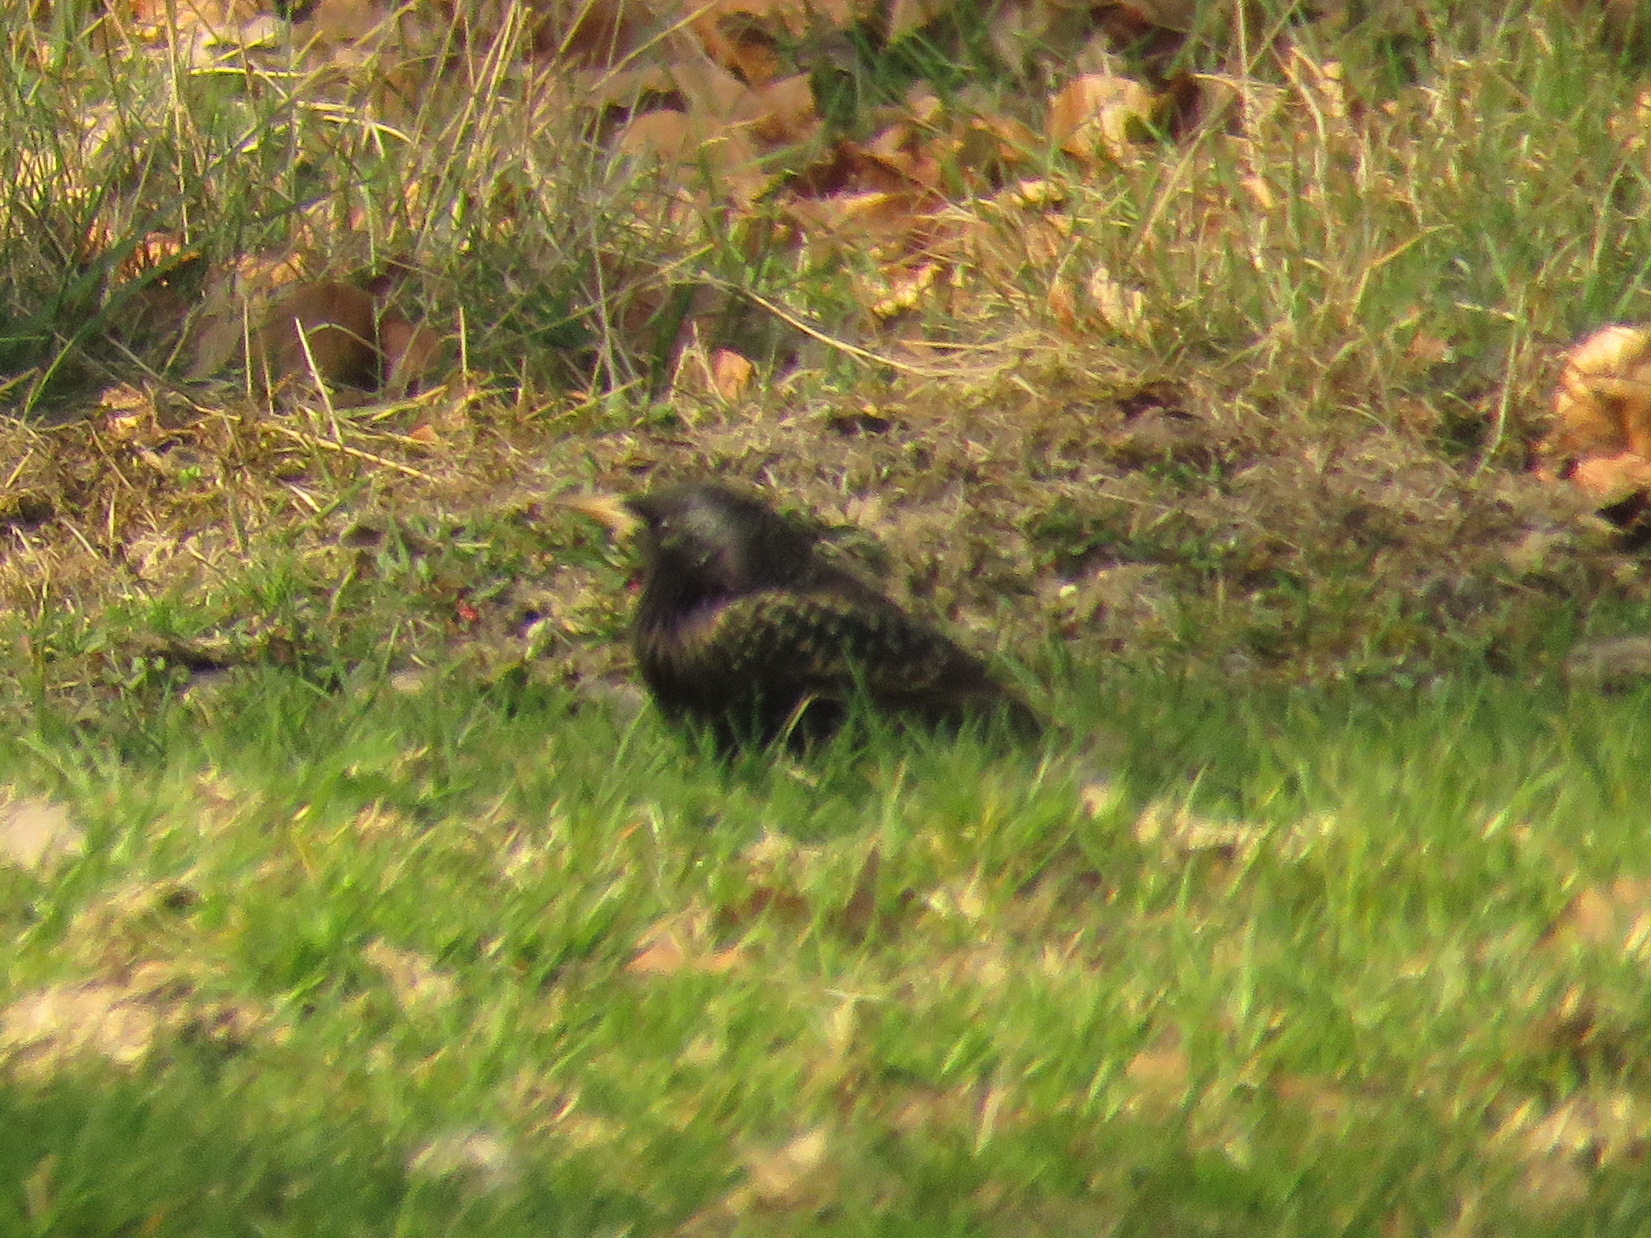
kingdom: Animalia
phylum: Chordata
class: Aves
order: Passeriformes
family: Sturnidae
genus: Sturnus
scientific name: Sturnus vulgaris
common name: Common starling
